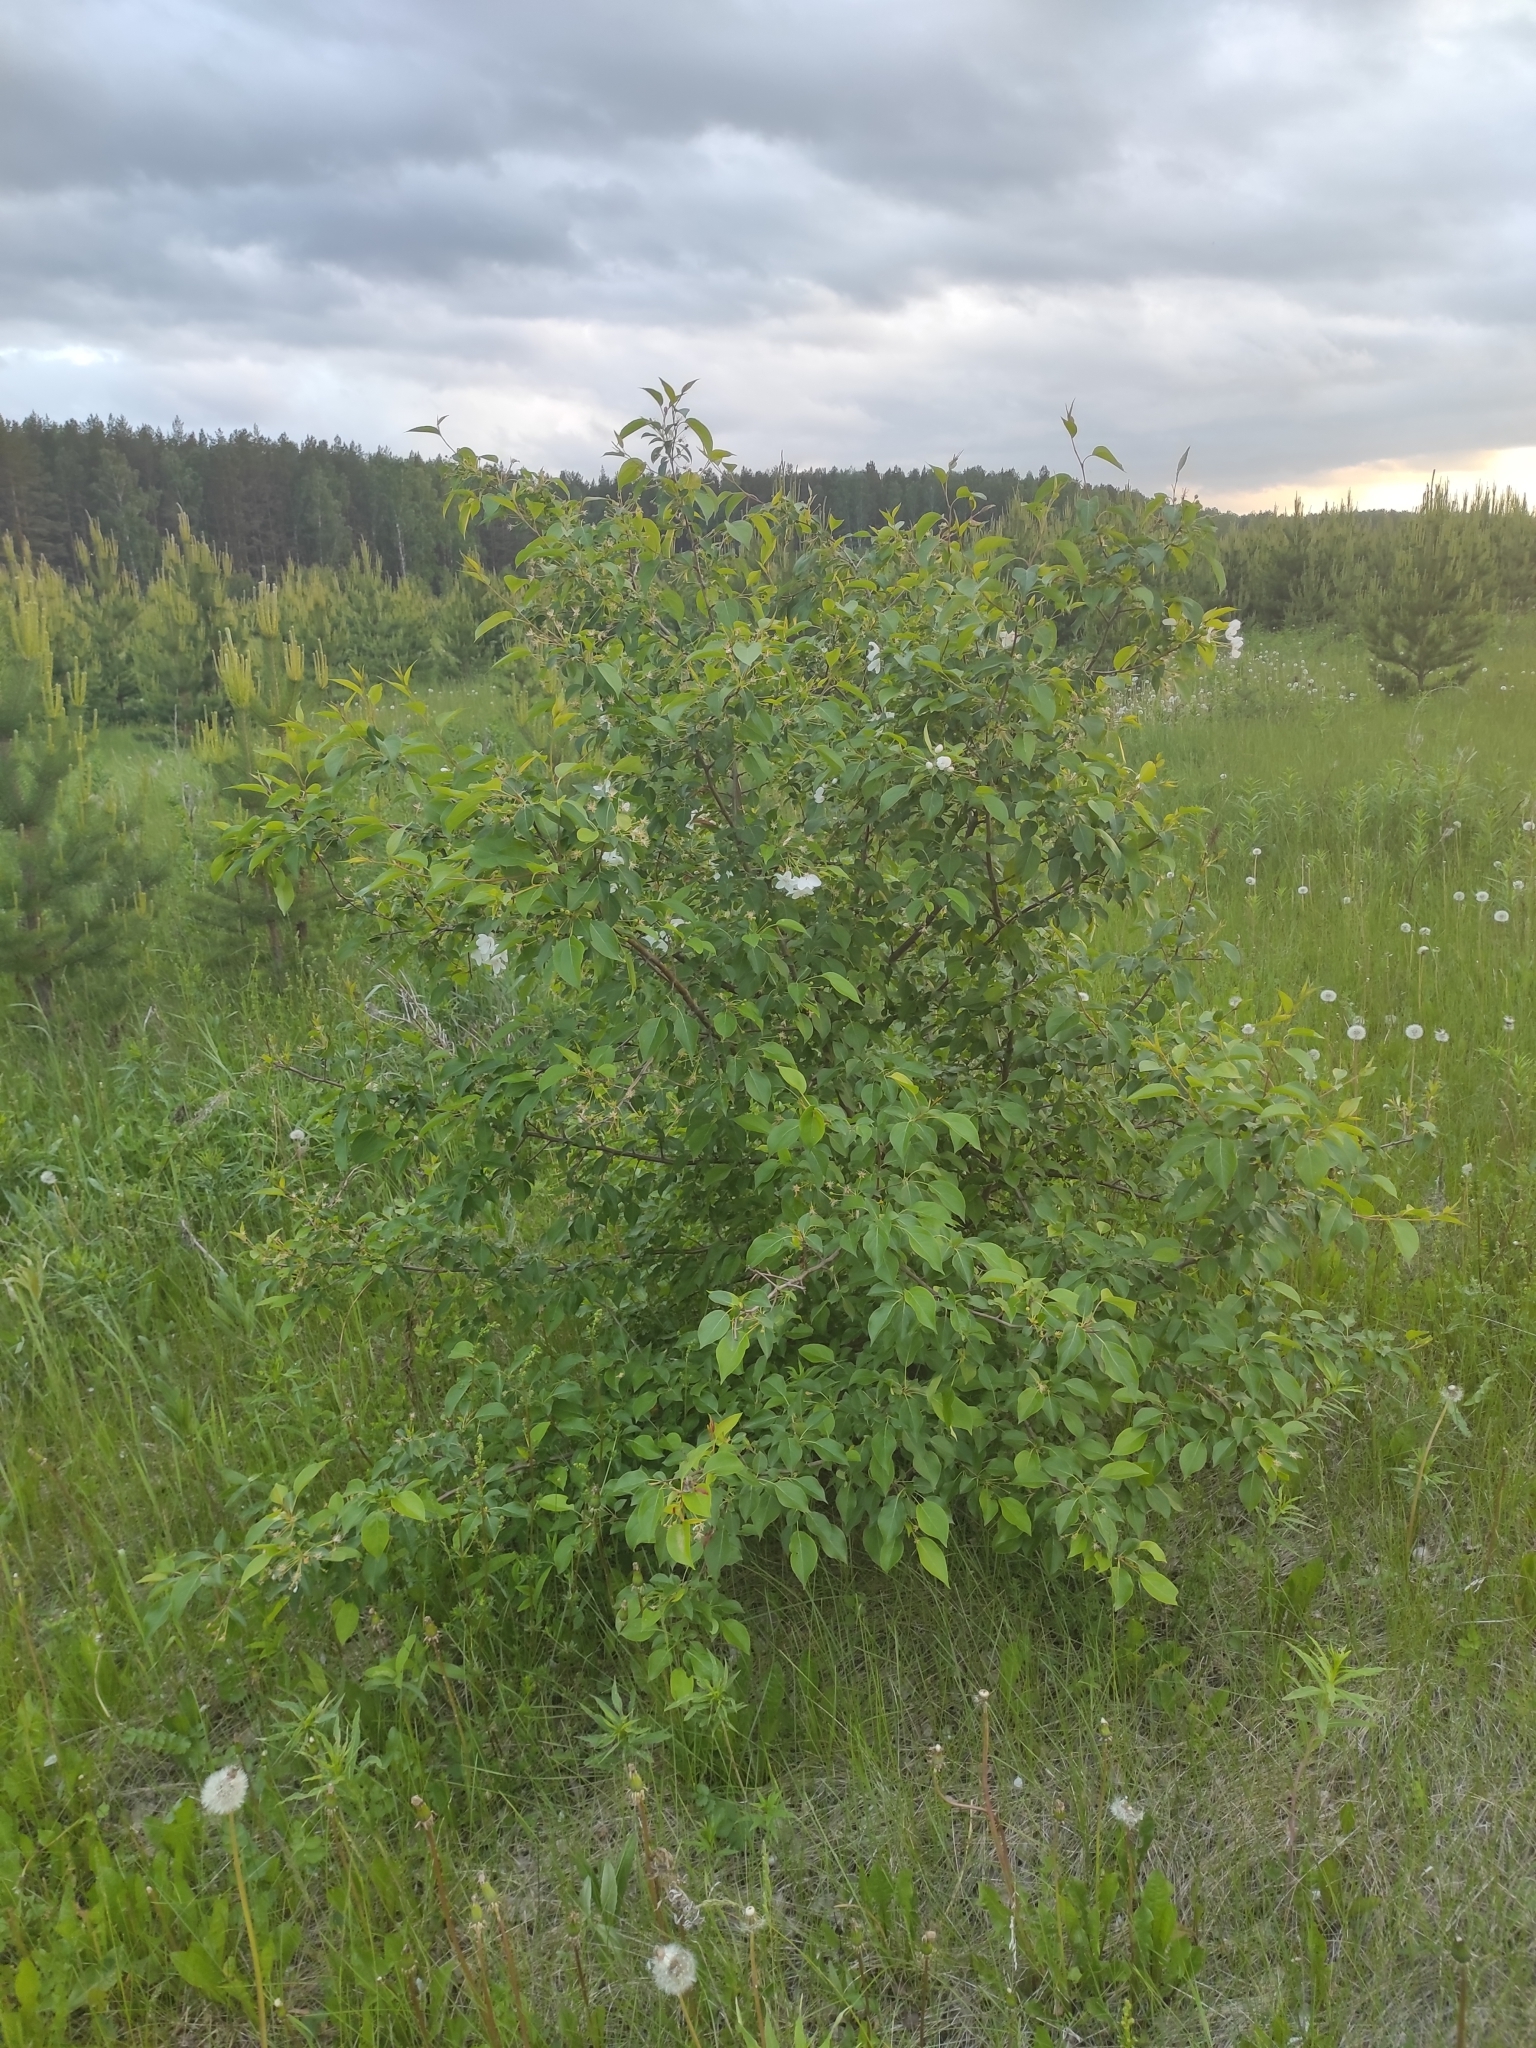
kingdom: Plantae
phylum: Tracheophyta
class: Magnoliopsida
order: Rosales
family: Rosaceae
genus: Malus
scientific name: Malus baccata
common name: Siberian crab
